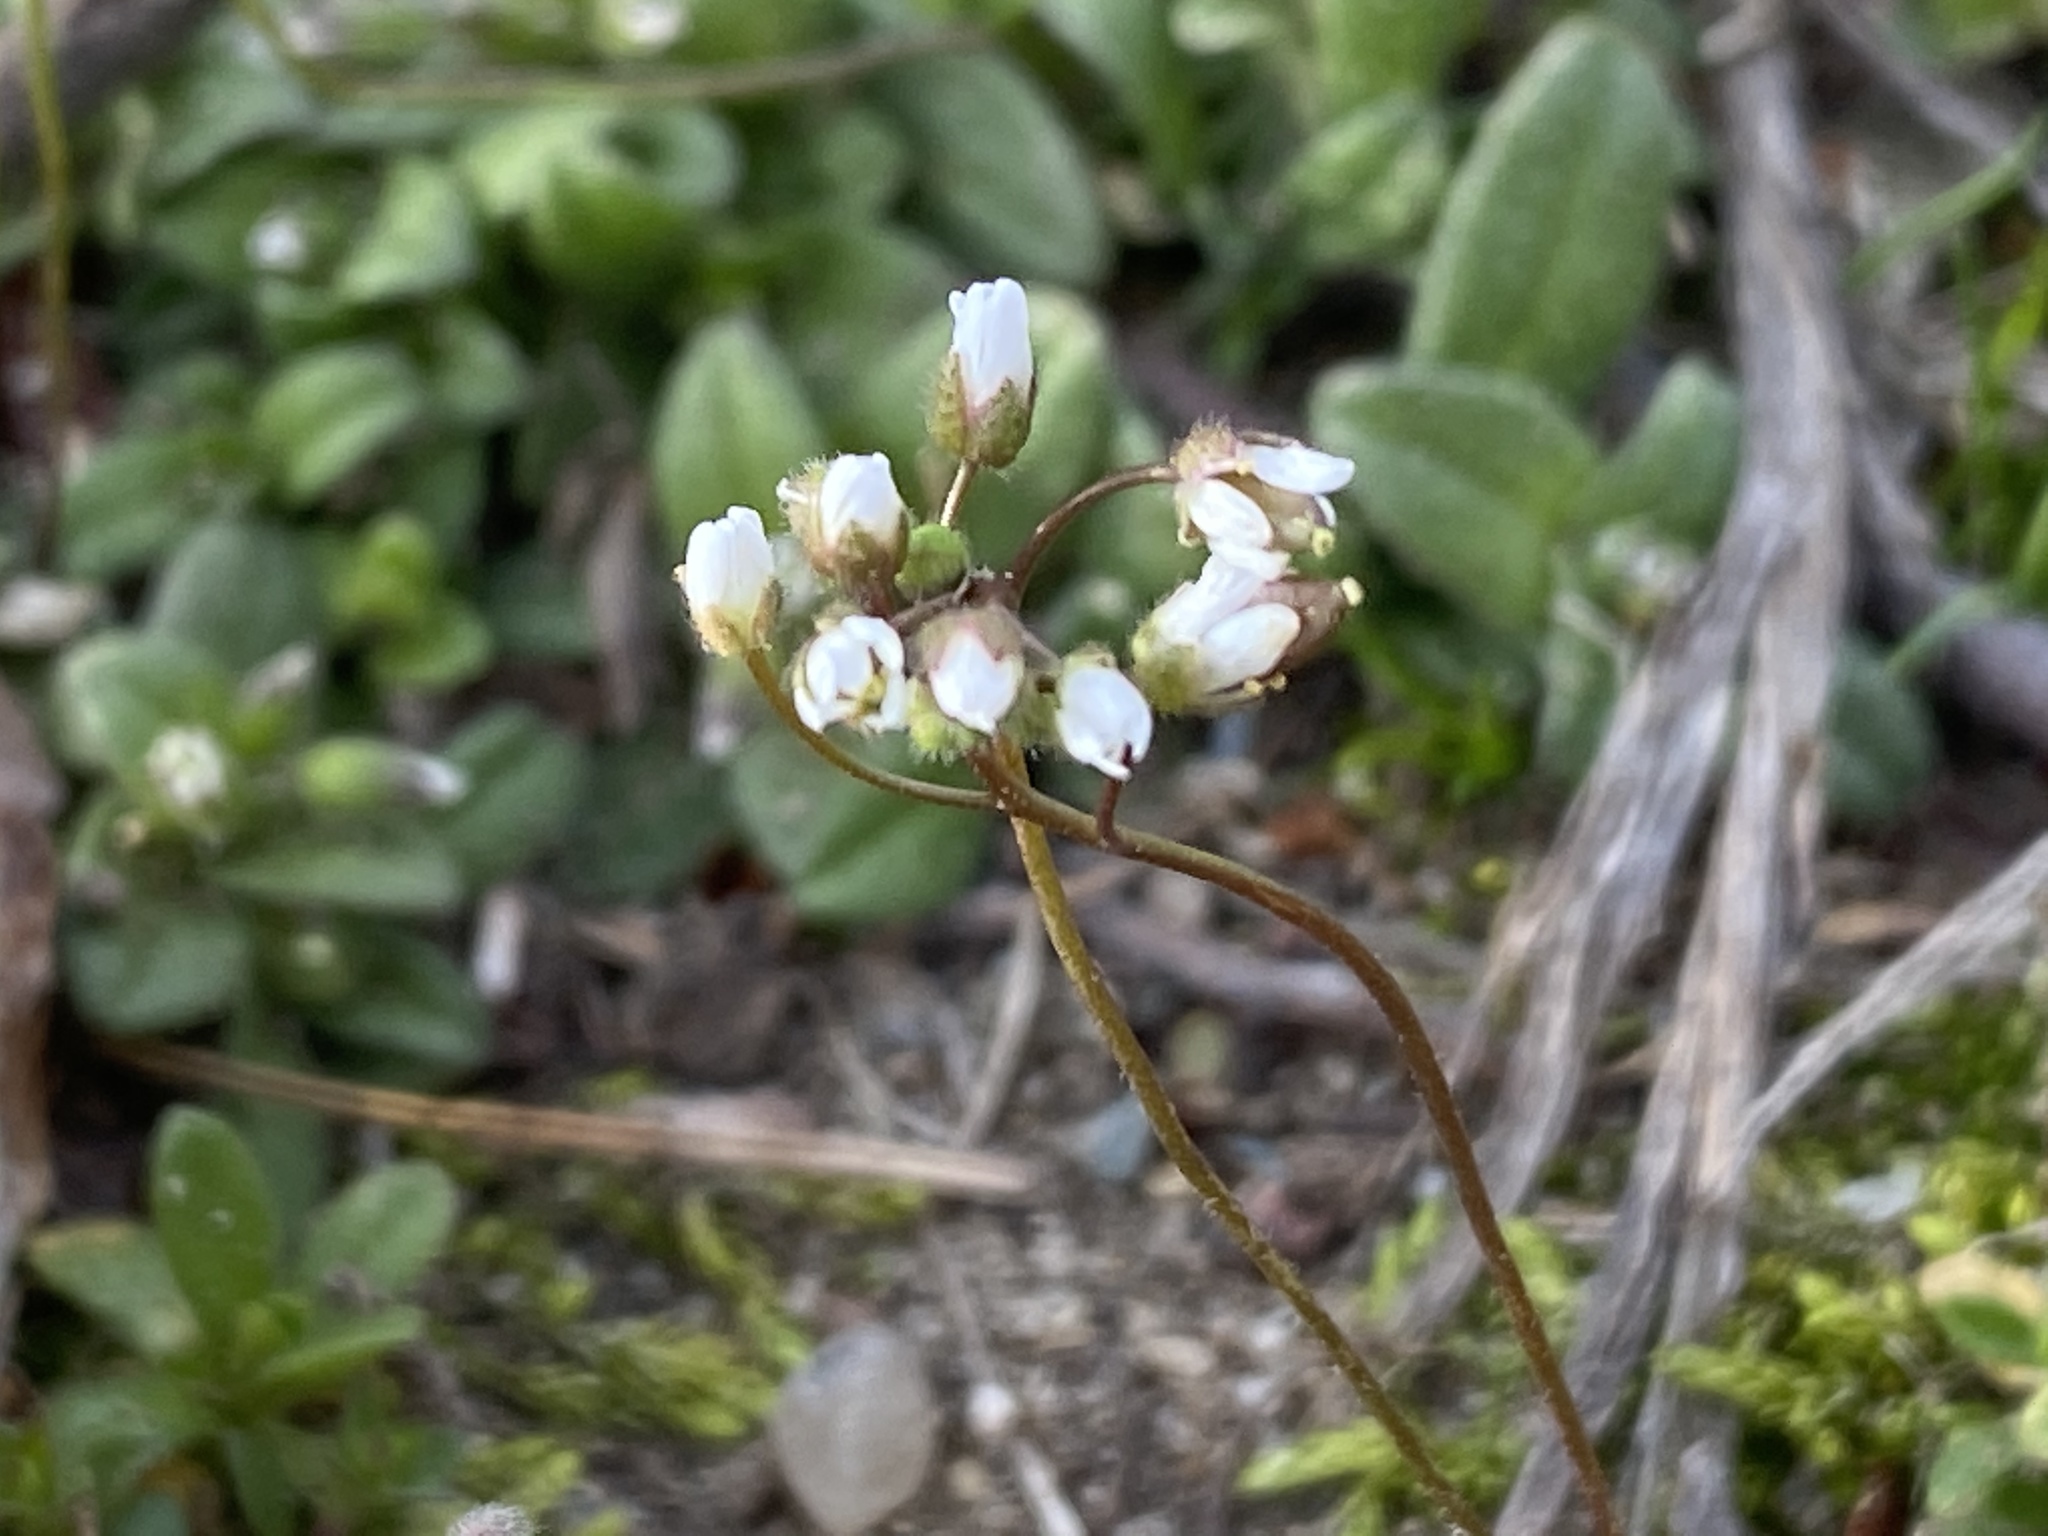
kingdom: Plantae
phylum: Tracheophyta
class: Magnoliopsida
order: Brassicales
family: Brassicaceae
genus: Draba
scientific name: Draba verna
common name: Spring draba
